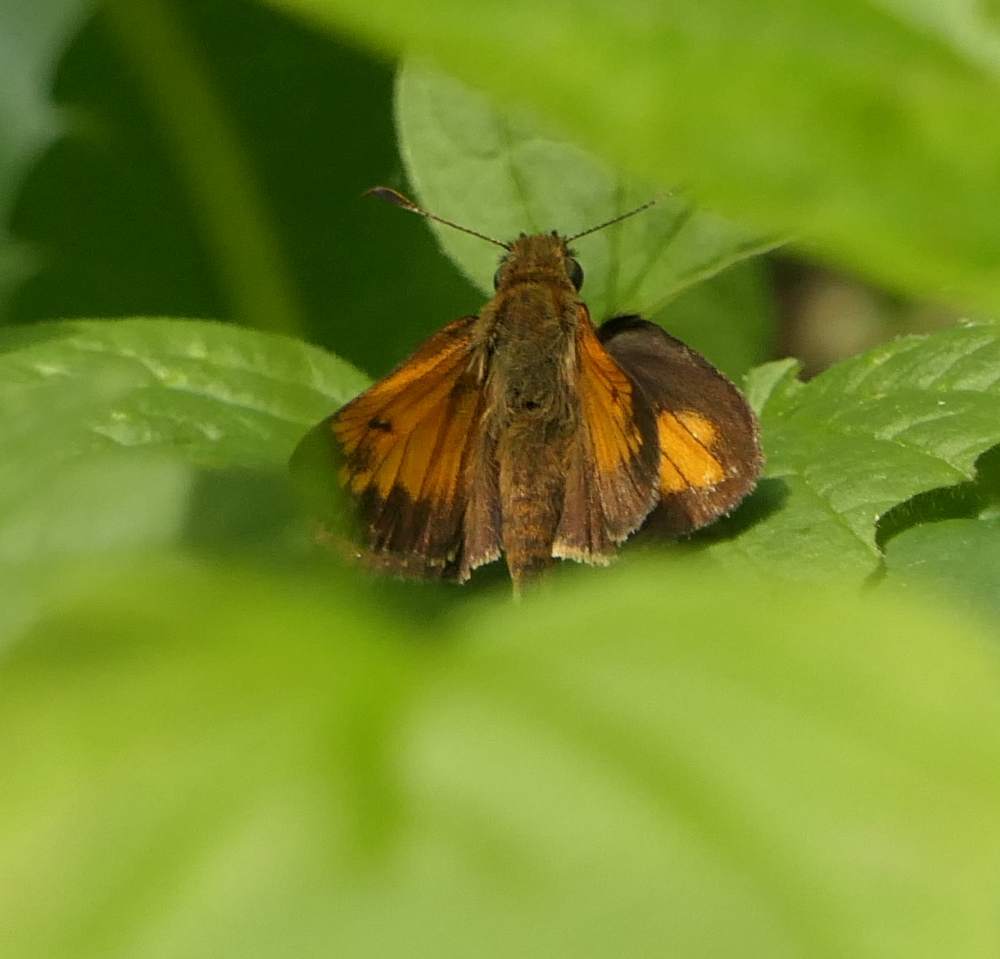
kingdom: Animalia
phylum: Arthropoda
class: Insecta
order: Lepidoptera
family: Hesperiidae
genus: Lon
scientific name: Lon hobomok
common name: Hobomok skipper
